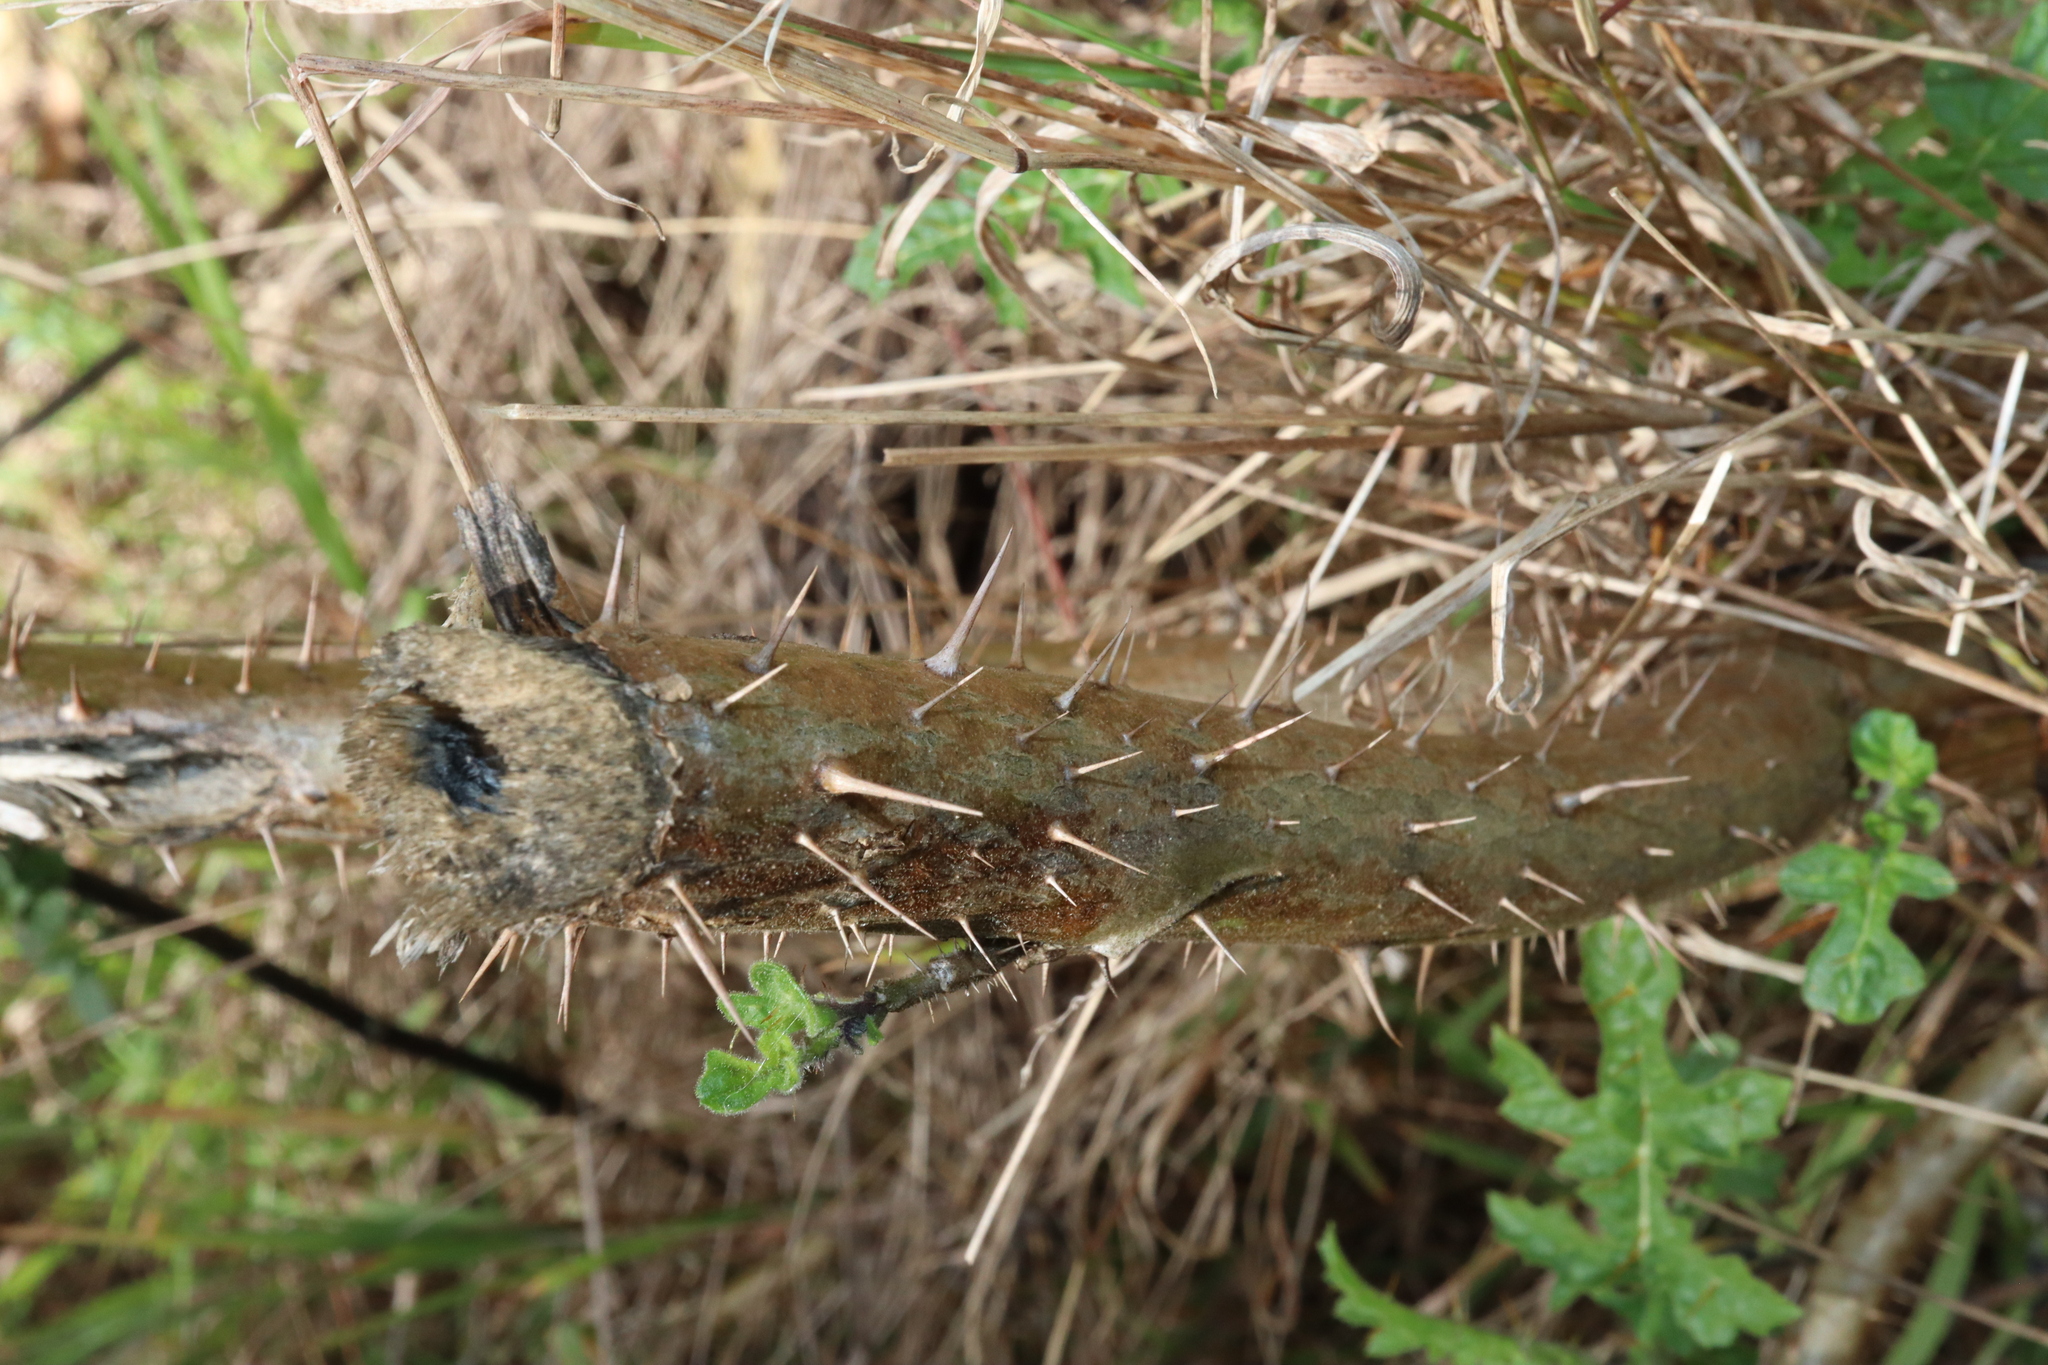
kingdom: Plantae
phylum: Tracheophyta
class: Magnoliopsida
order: Solanales
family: Solanaceae
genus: Solanum
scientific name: Solanum sisymbriifolium
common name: Red buffalo-bur
